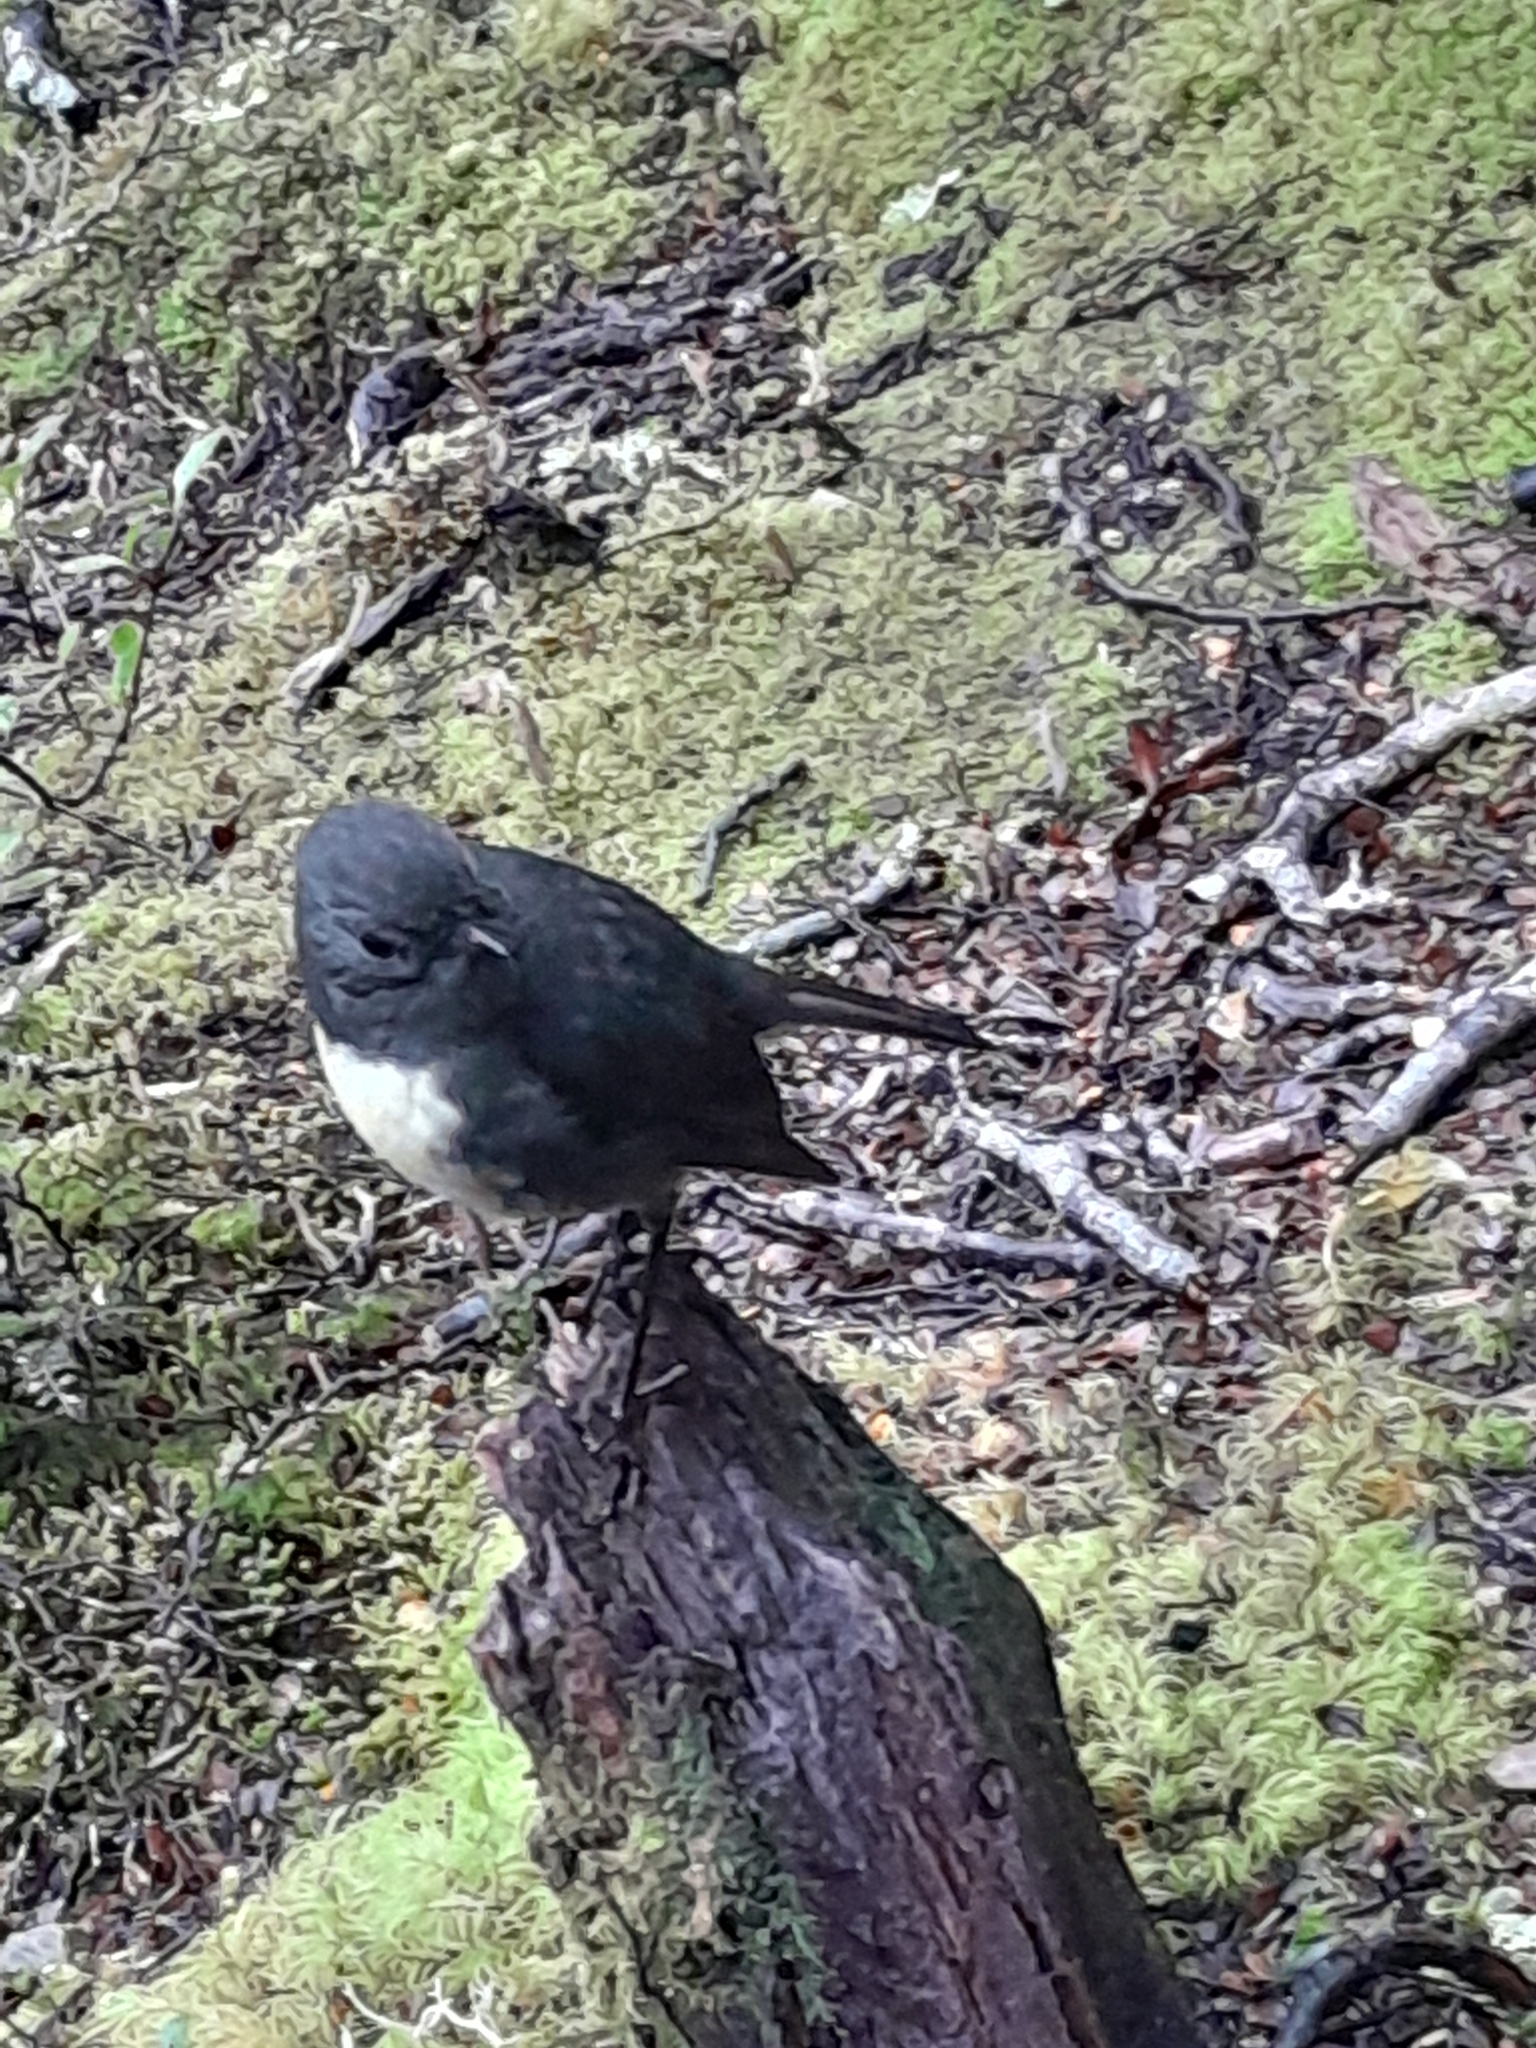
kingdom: Animalia
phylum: Chordata
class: Aves
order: Passeriformes
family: Petroicidae
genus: Petroica
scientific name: Petroica australis
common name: New zealand robin
